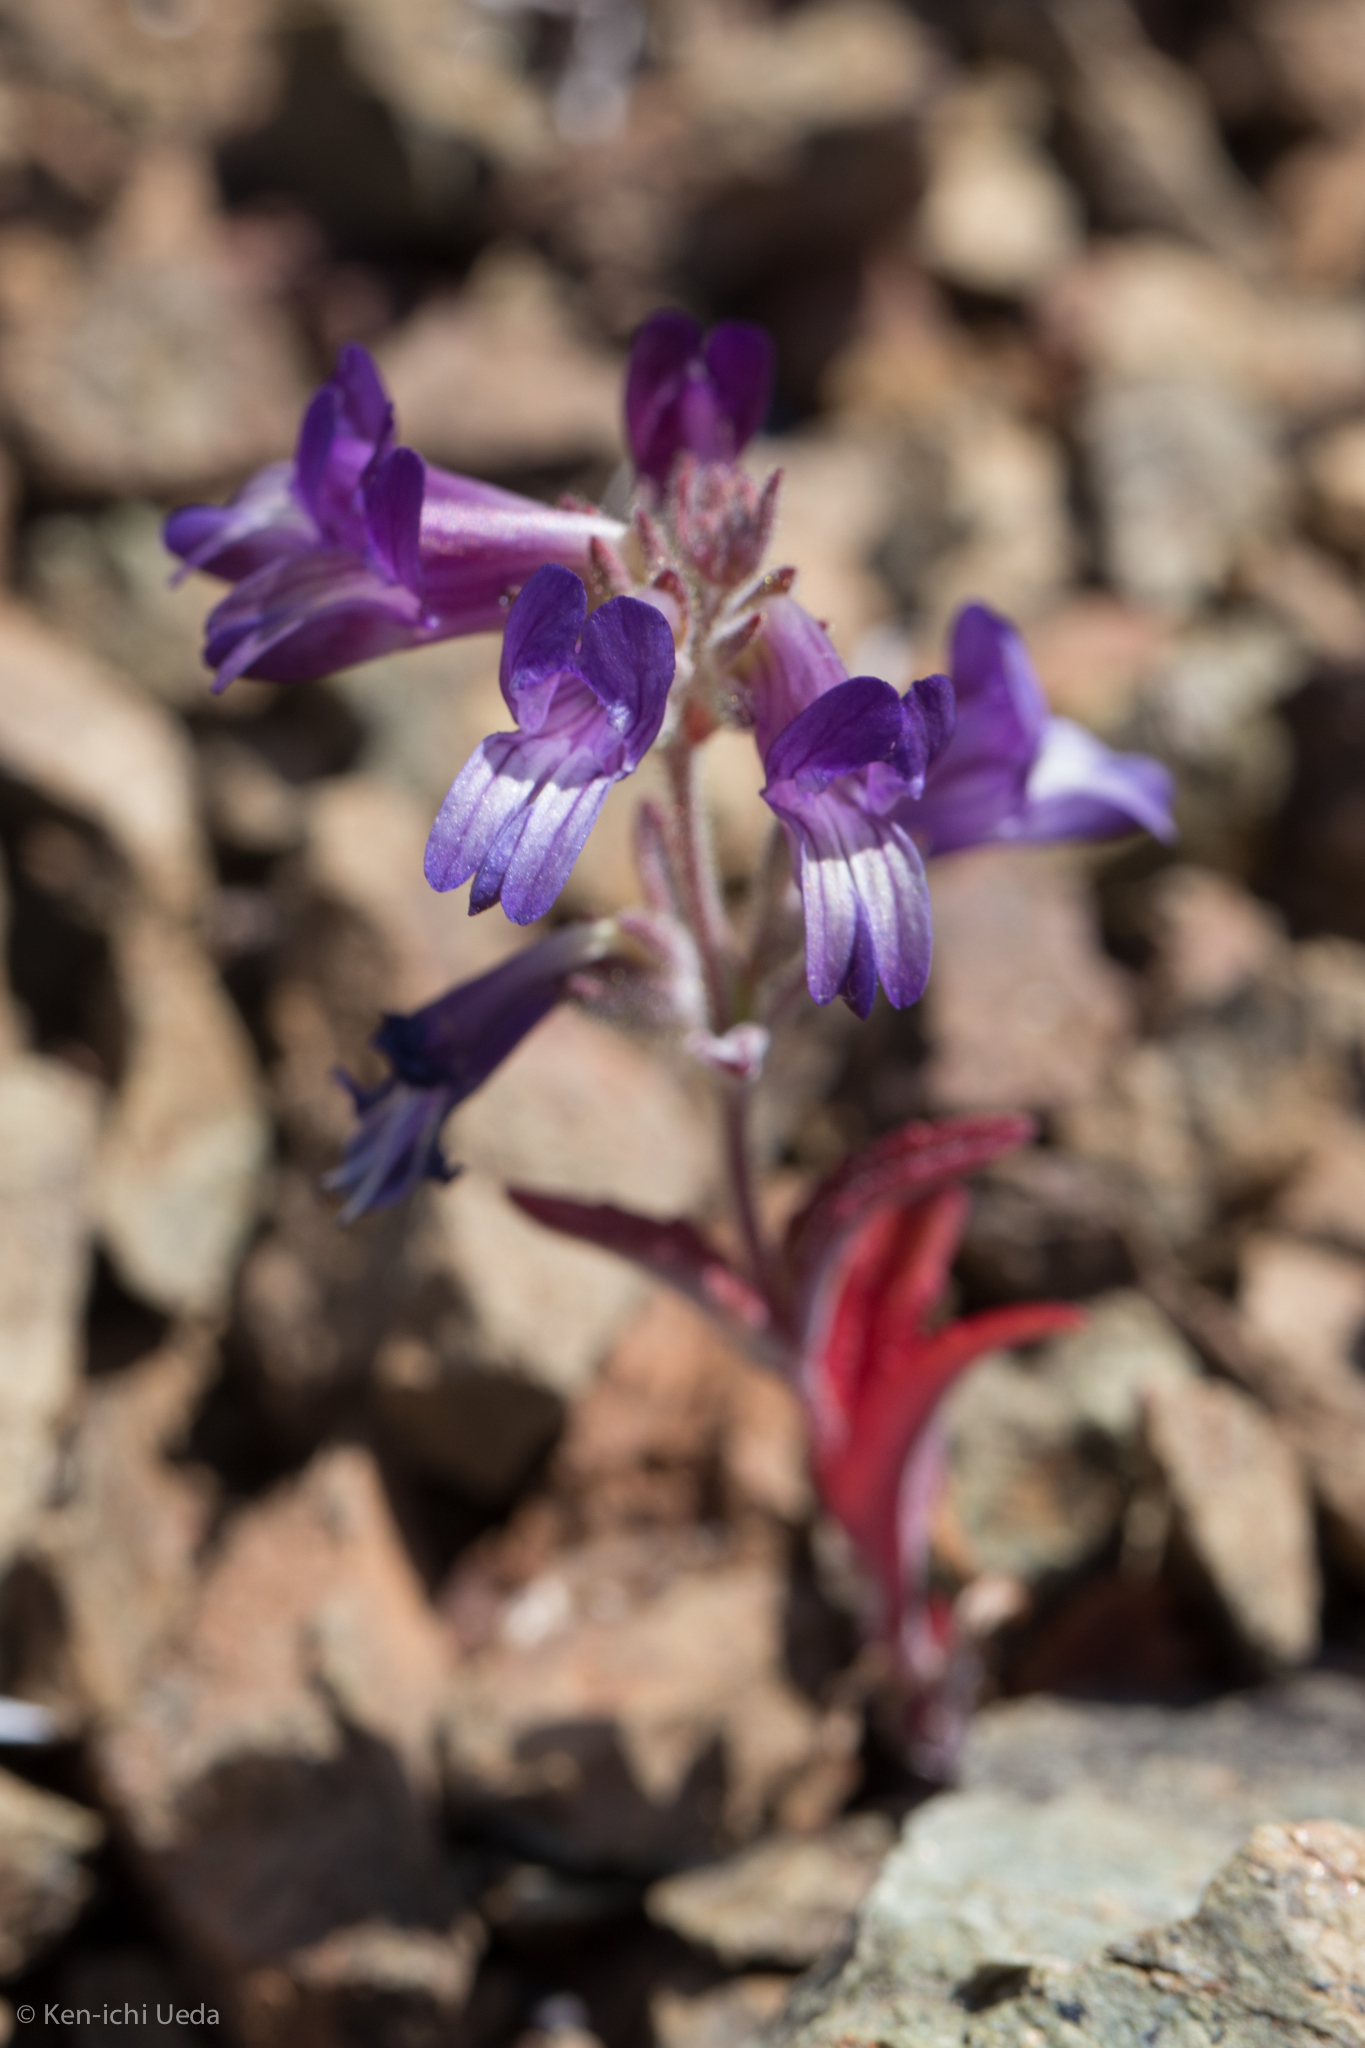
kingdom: Plantae
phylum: Tracheophyta
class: Magnoliopsida
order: Lamiales
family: Plantaginaceae
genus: Collinsia
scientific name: Collinsia greenei
